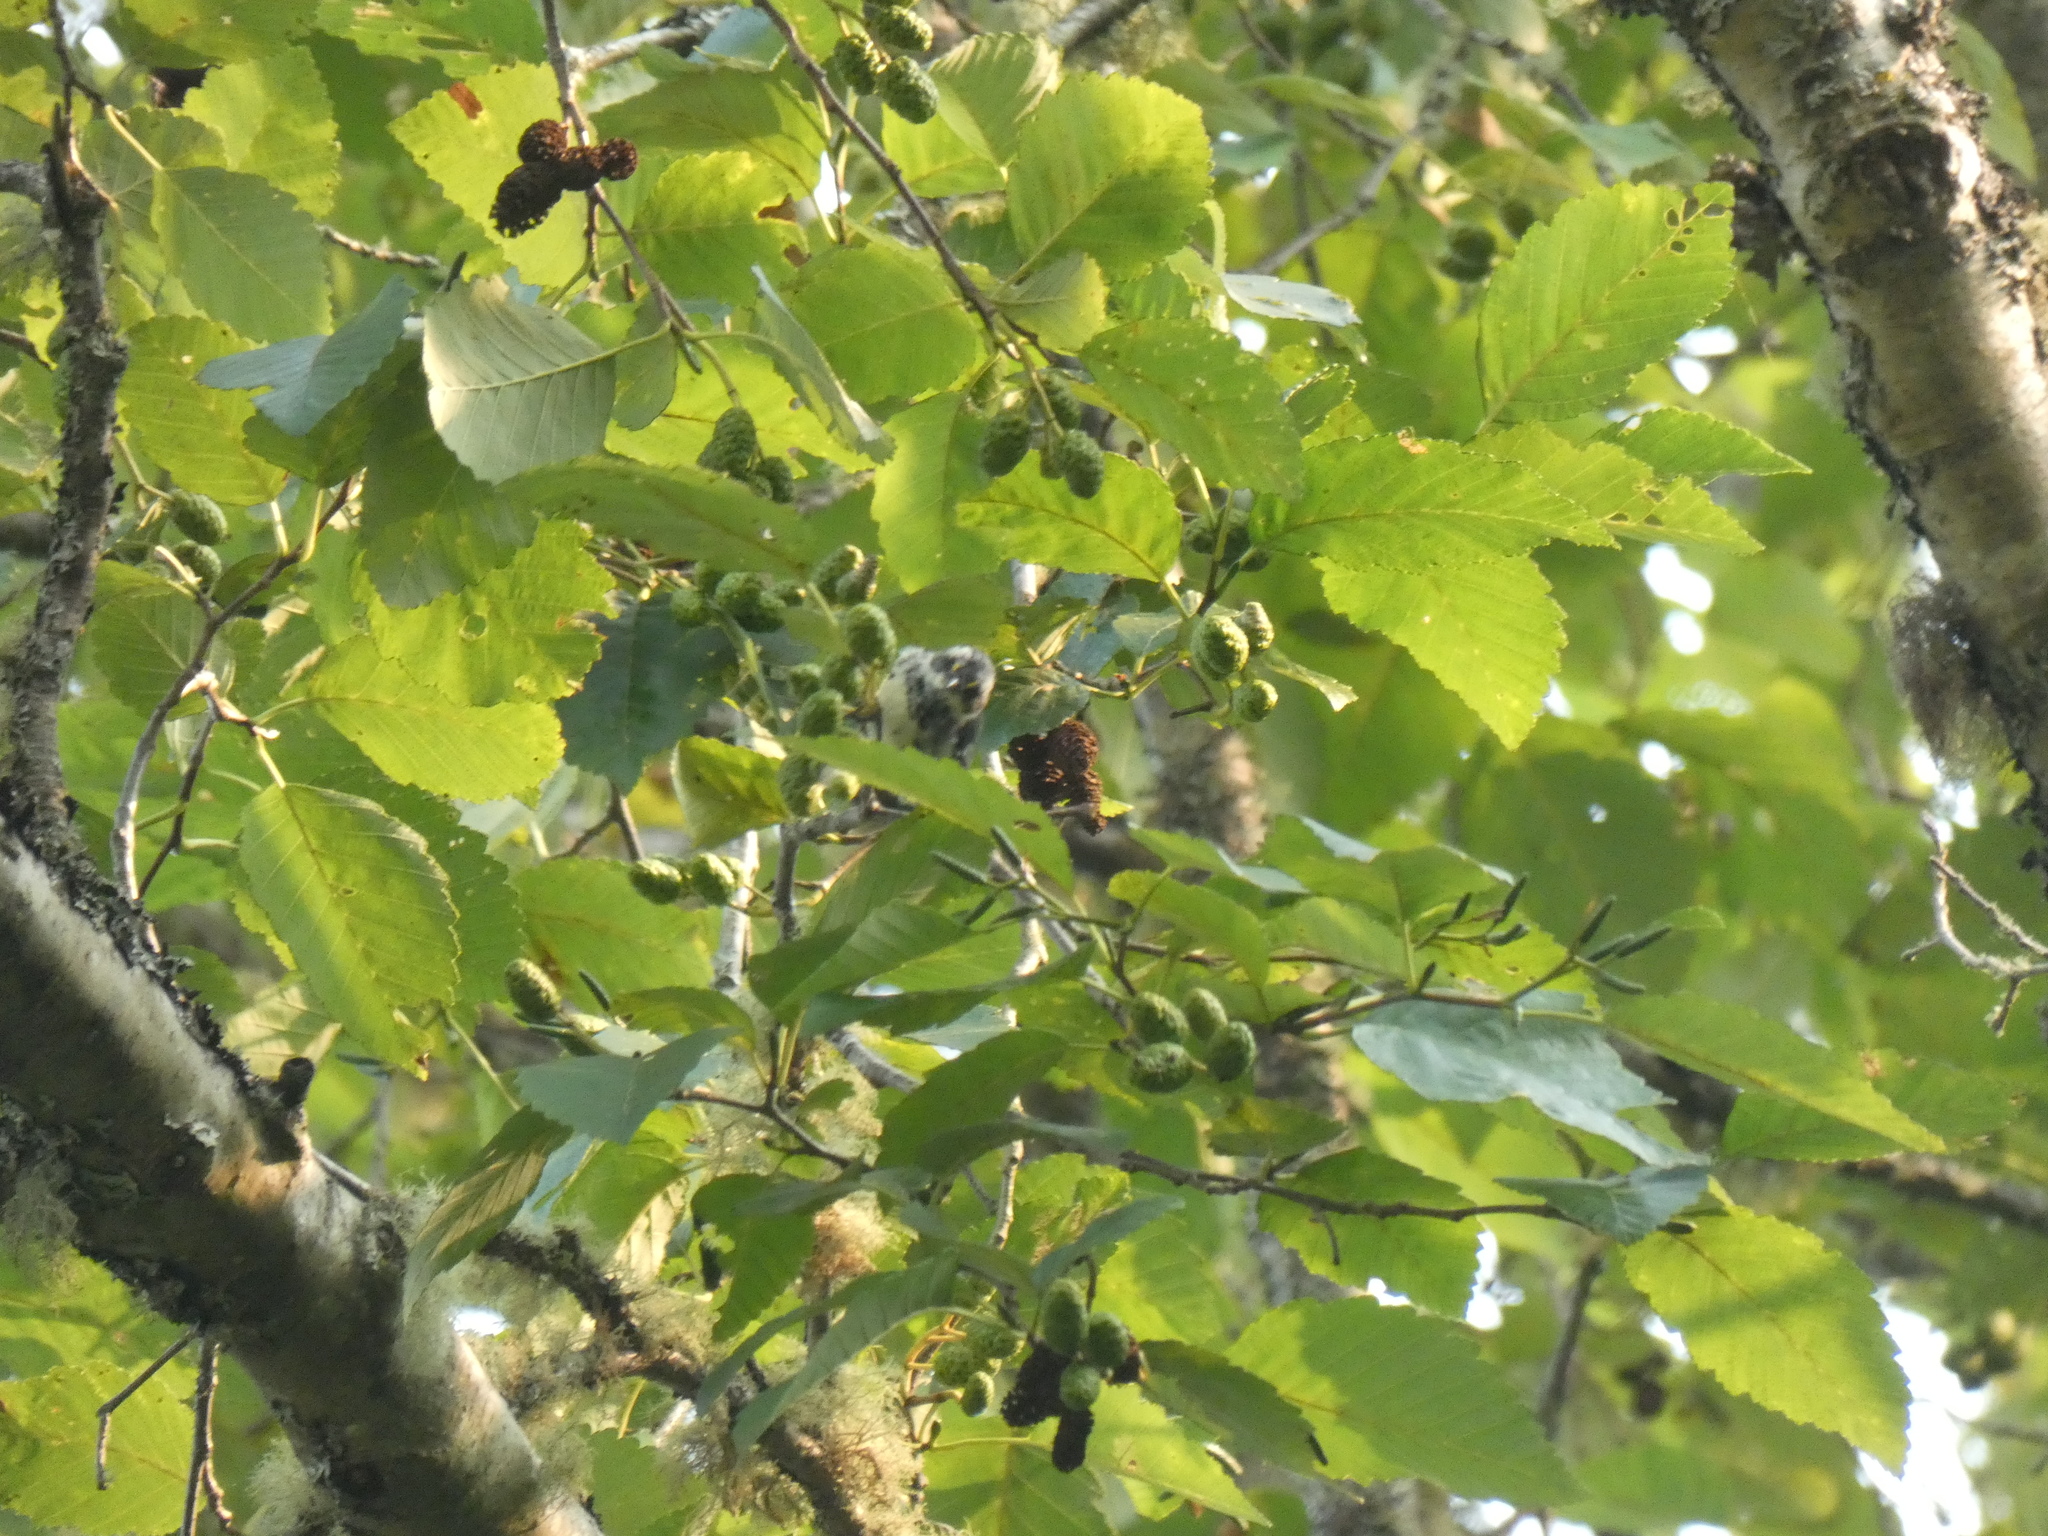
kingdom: Animalia
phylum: Chordata
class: Aves
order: Passeriformes
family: Parulidae
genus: Setophaga
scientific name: Setophaga nigrescens
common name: Black-throated gray warbler
